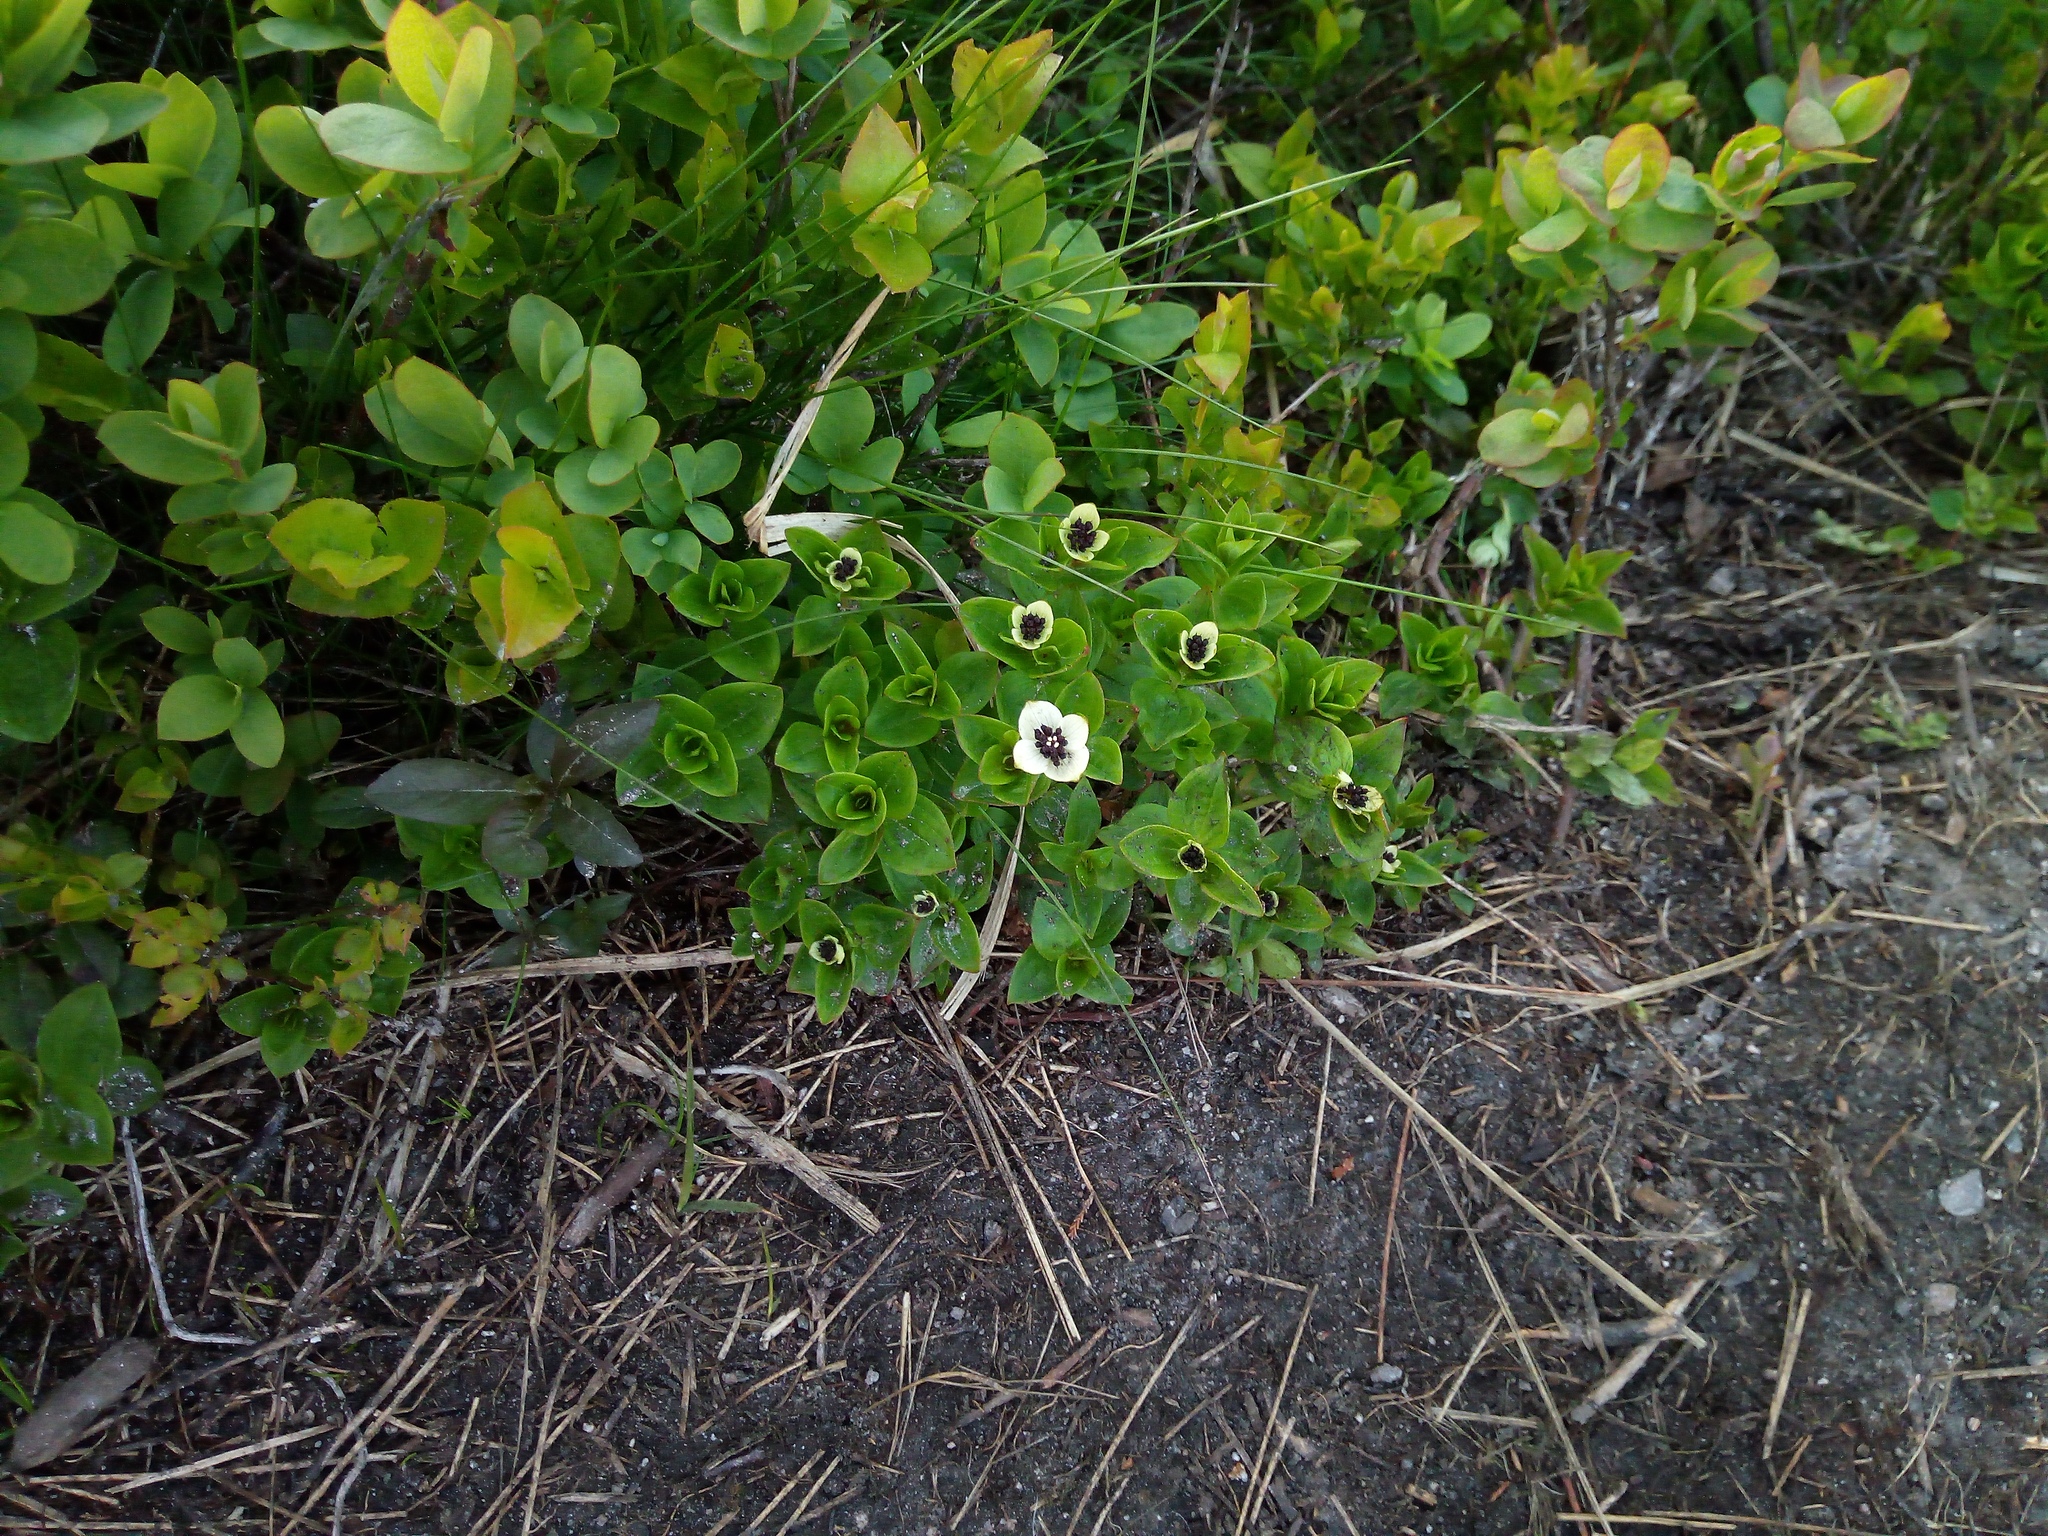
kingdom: Plantae
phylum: Tracheophyta
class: Magnoliopsida
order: Cornales
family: Cornaceae
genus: Cornus
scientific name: Cornus suecica
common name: Dwarf cornel
